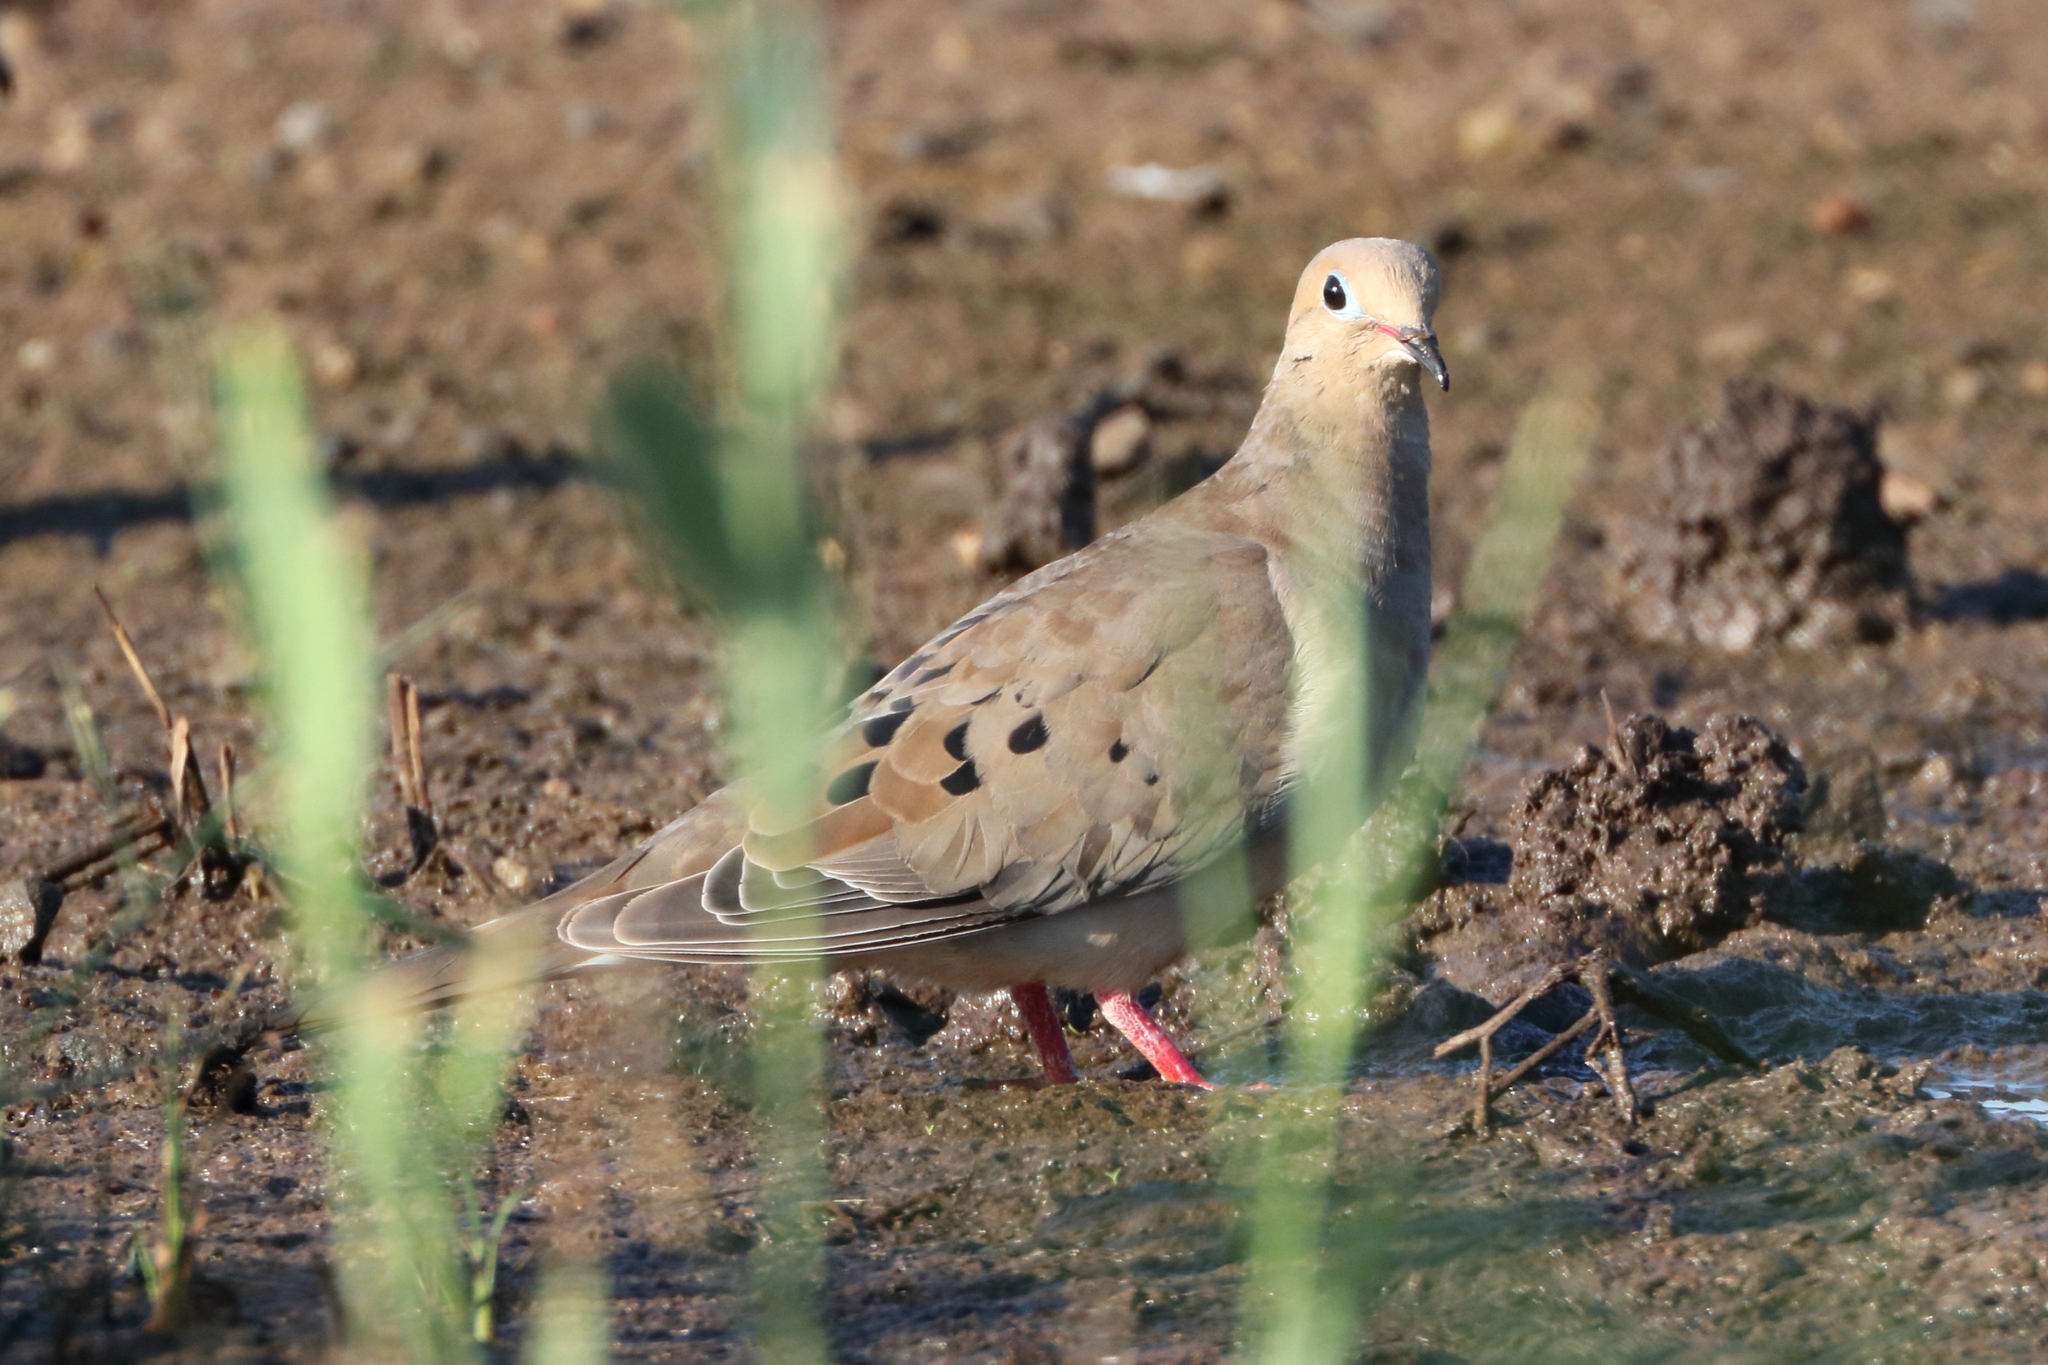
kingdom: Animalia
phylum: Chordata
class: Aves
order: Columbiformes
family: Columbidae
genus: Zenaida
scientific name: Zenaida macroura
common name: Mourning dove
